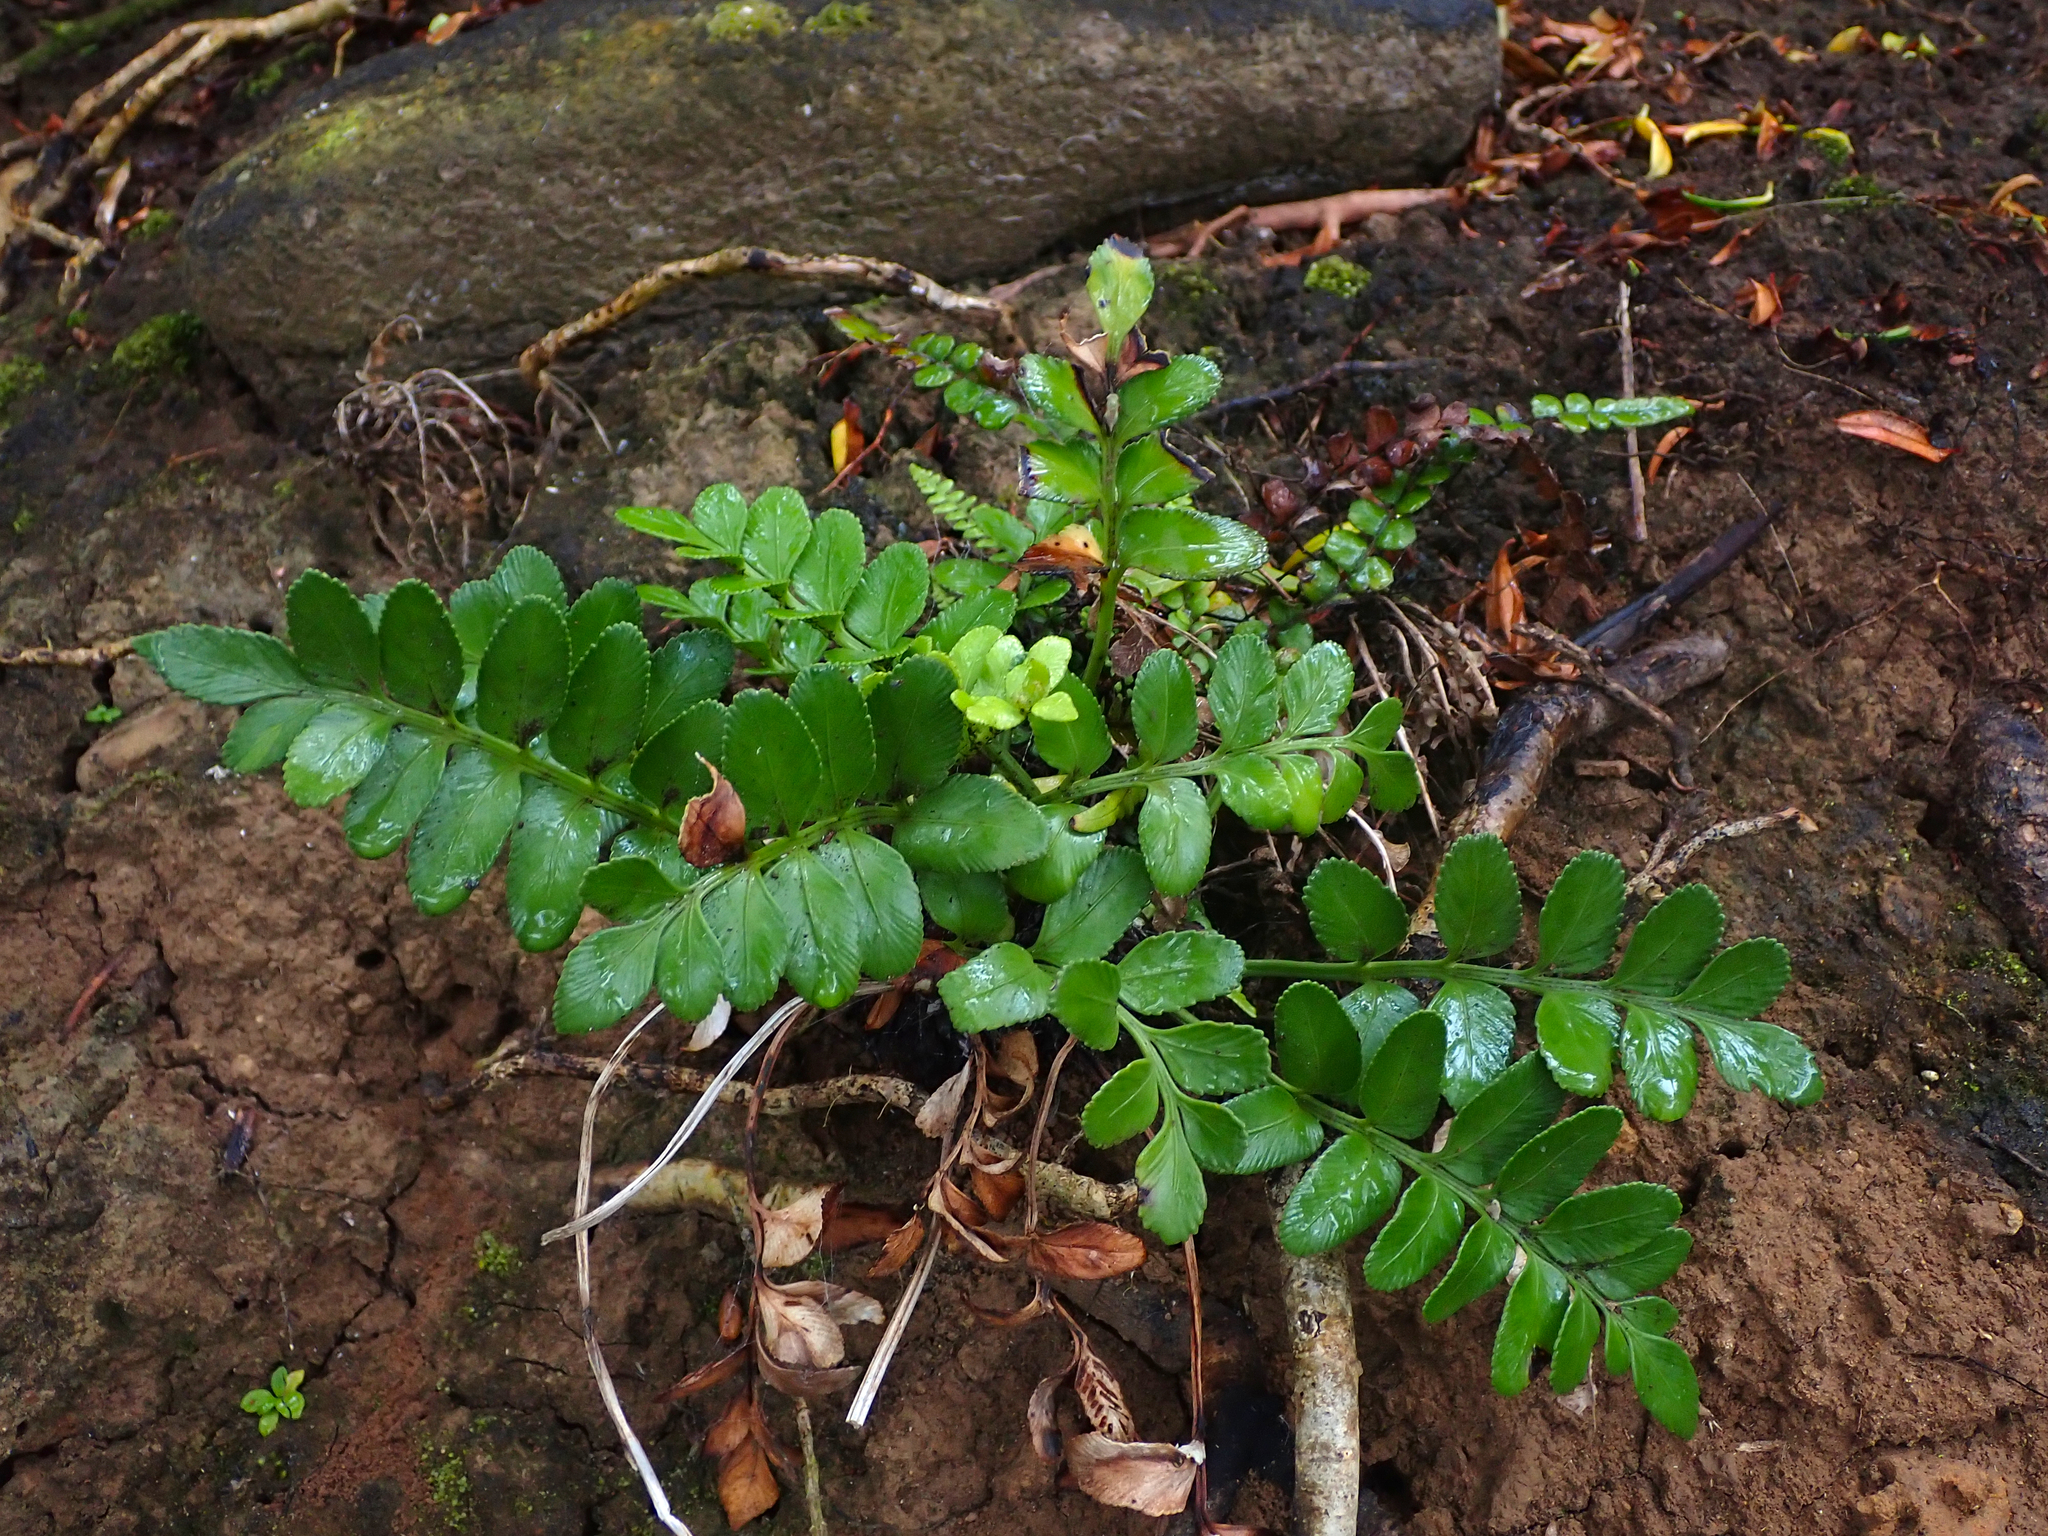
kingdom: Plantae
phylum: Tracheophyta
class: Polypodiopsida
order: Polypodiales
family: Aspleniaceae
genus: Asplenium
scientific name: Asplenium obtusatum
